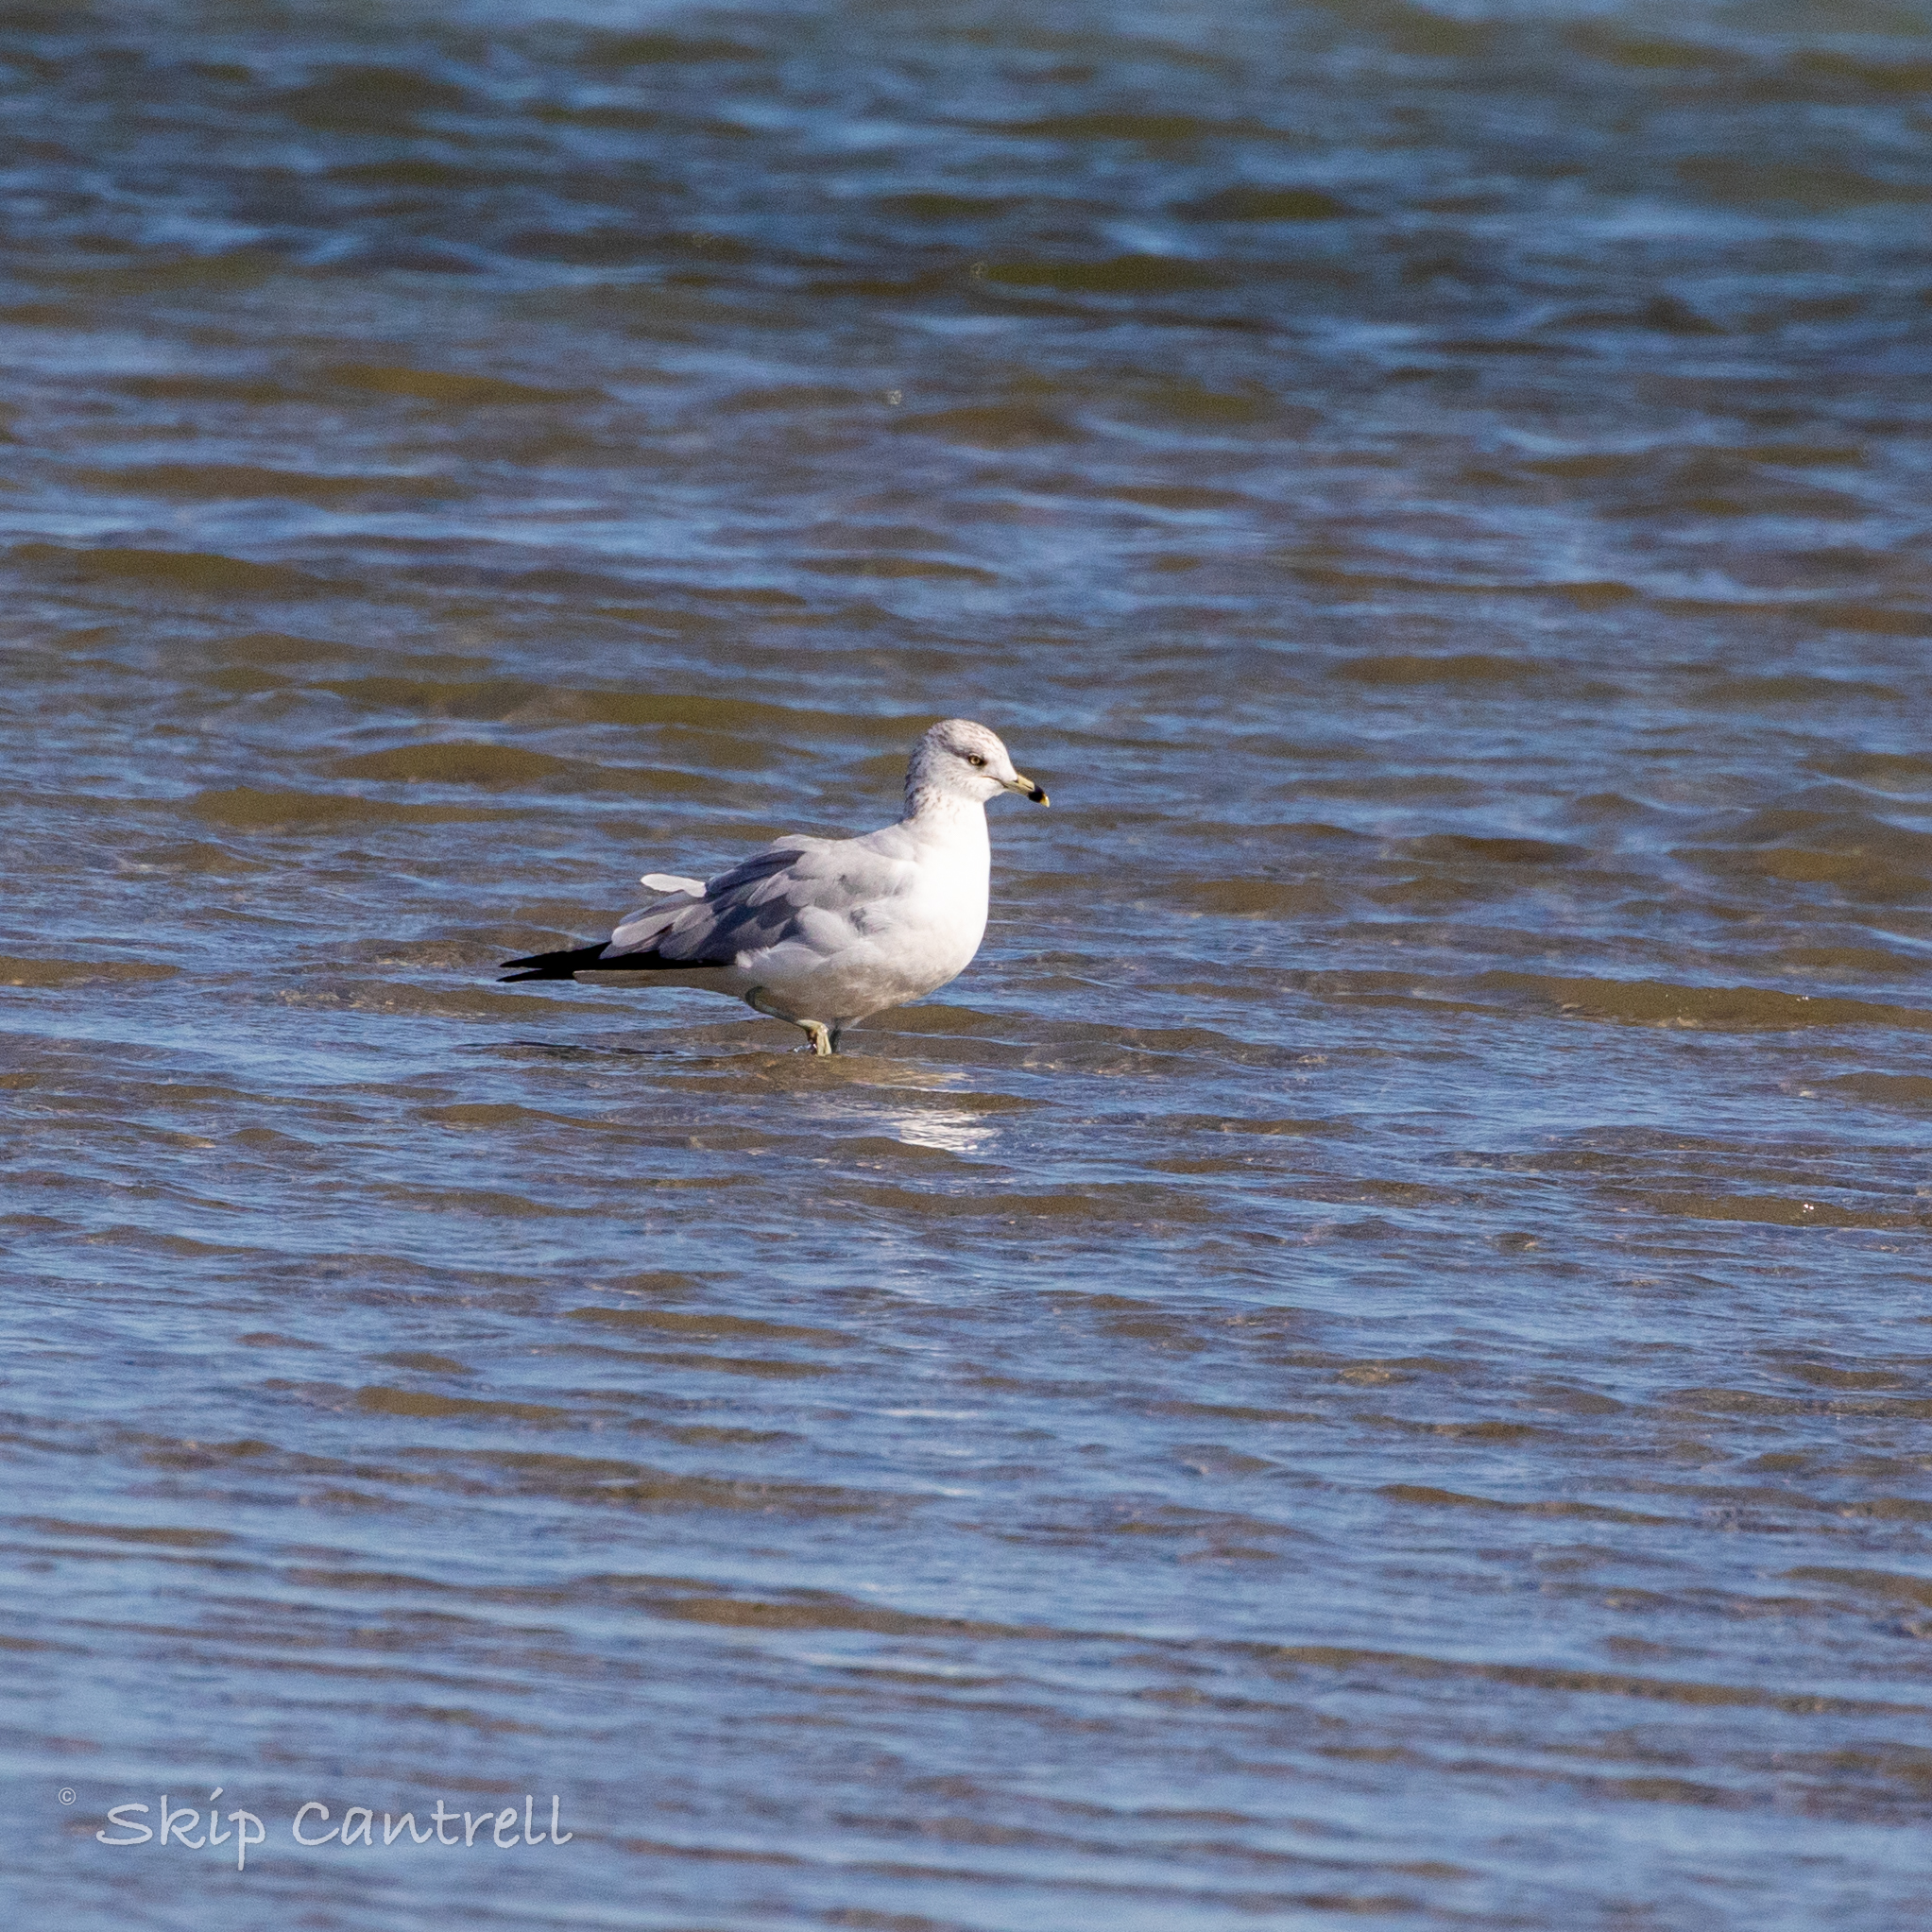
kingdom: Animalia
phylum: Chordata
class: Aves
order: Charadriiformes
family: Laridae
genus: Larus
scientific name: Larus delawarensis
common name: Ring-billed gull
